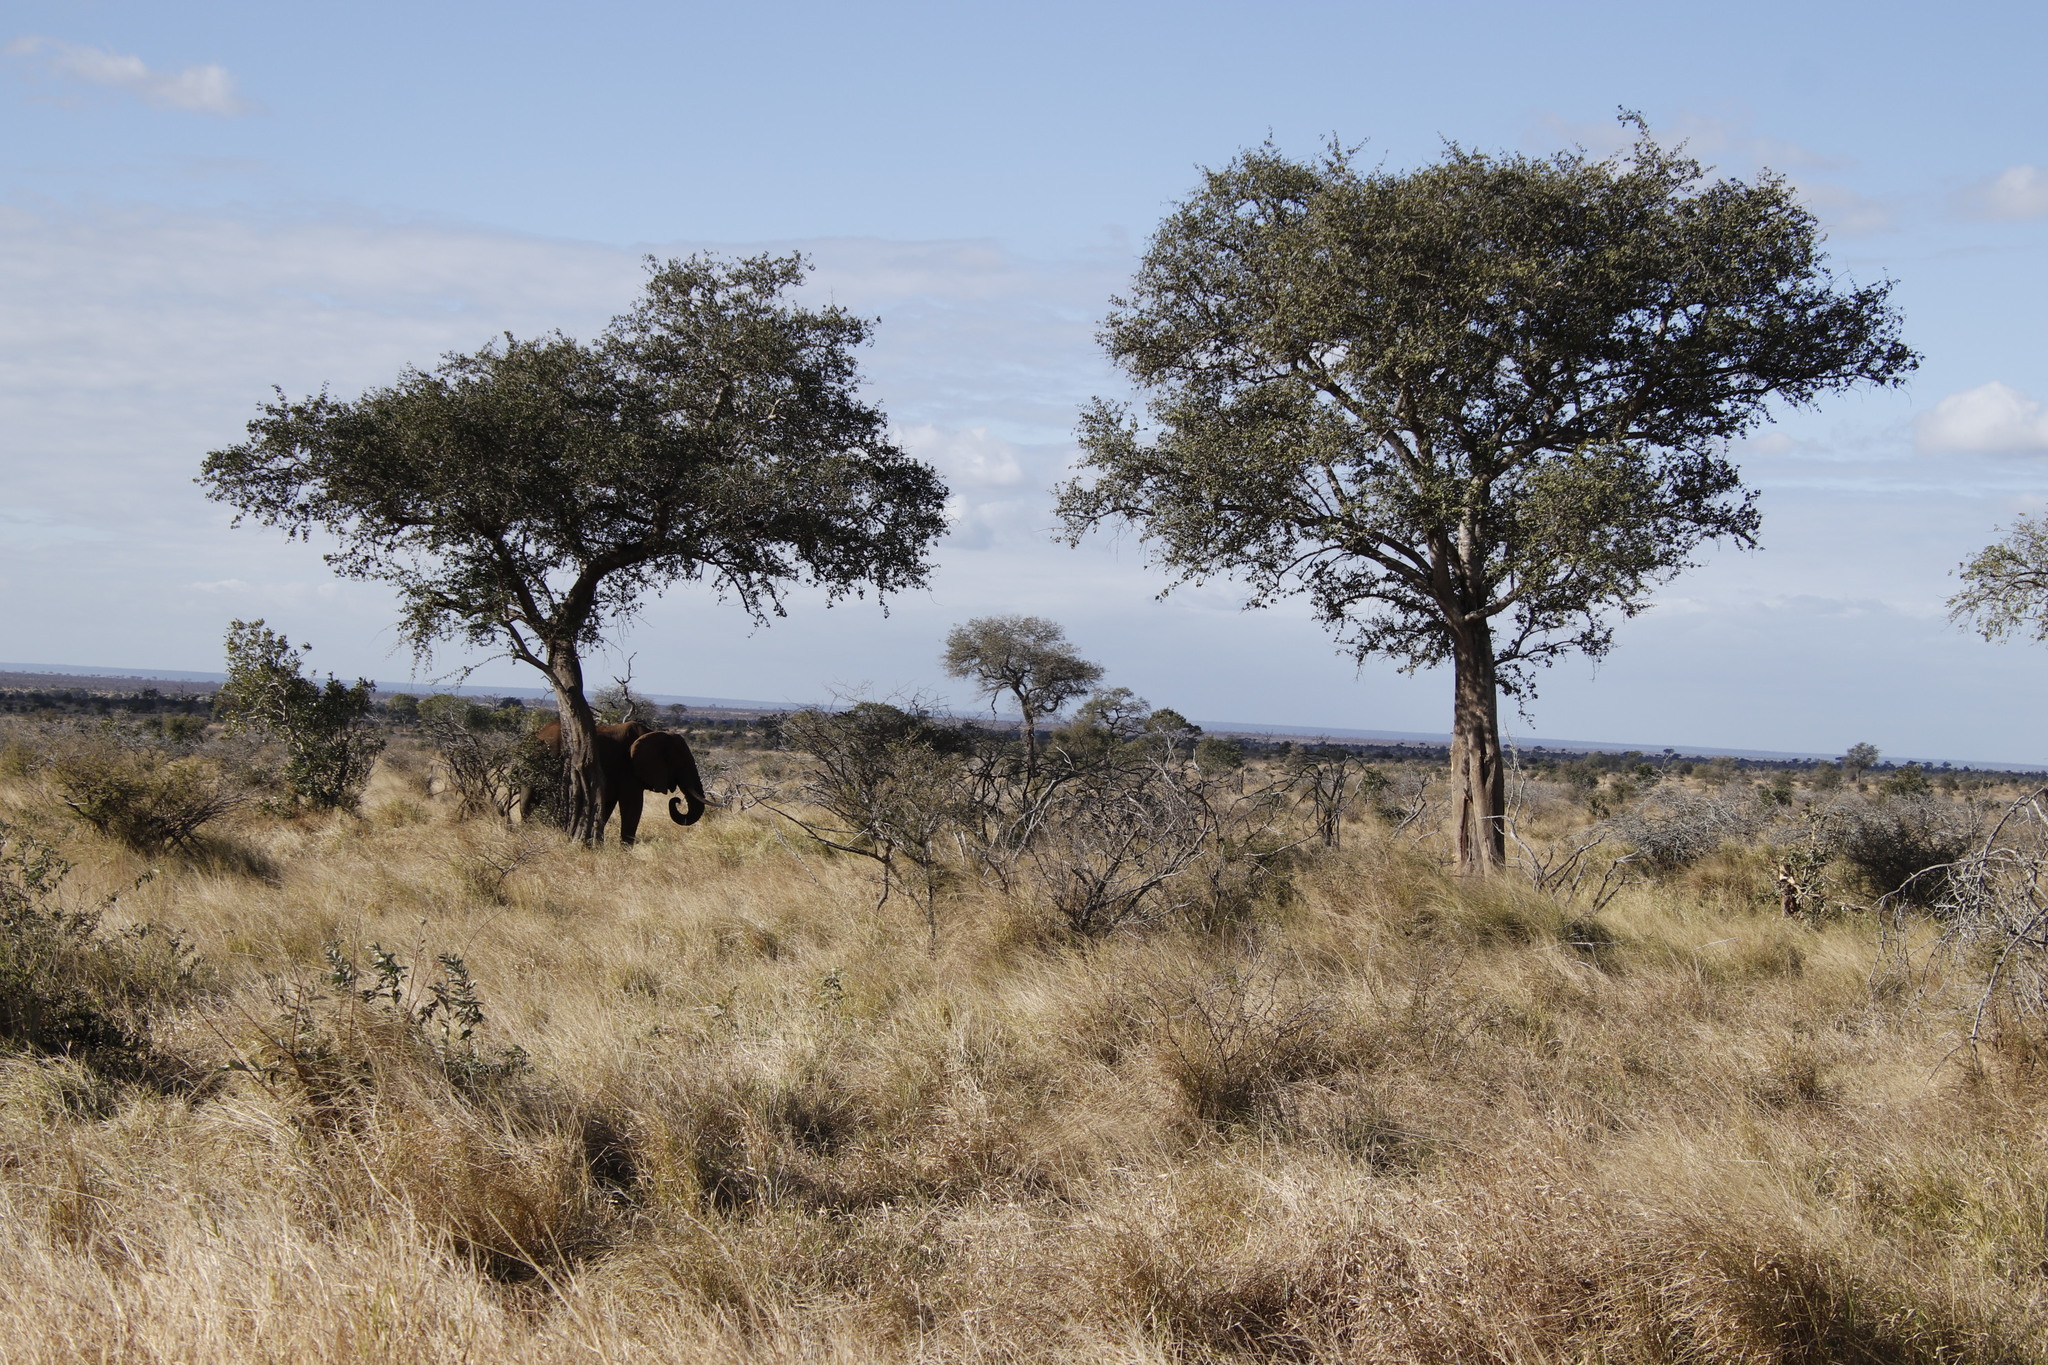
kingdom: Plantae
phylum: Tracheophyta
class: Magnoliopsida
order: Zygophyllales
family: Zygophyllaceae
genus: Balanites
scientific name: Balanites maughamii
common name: Torchwood
